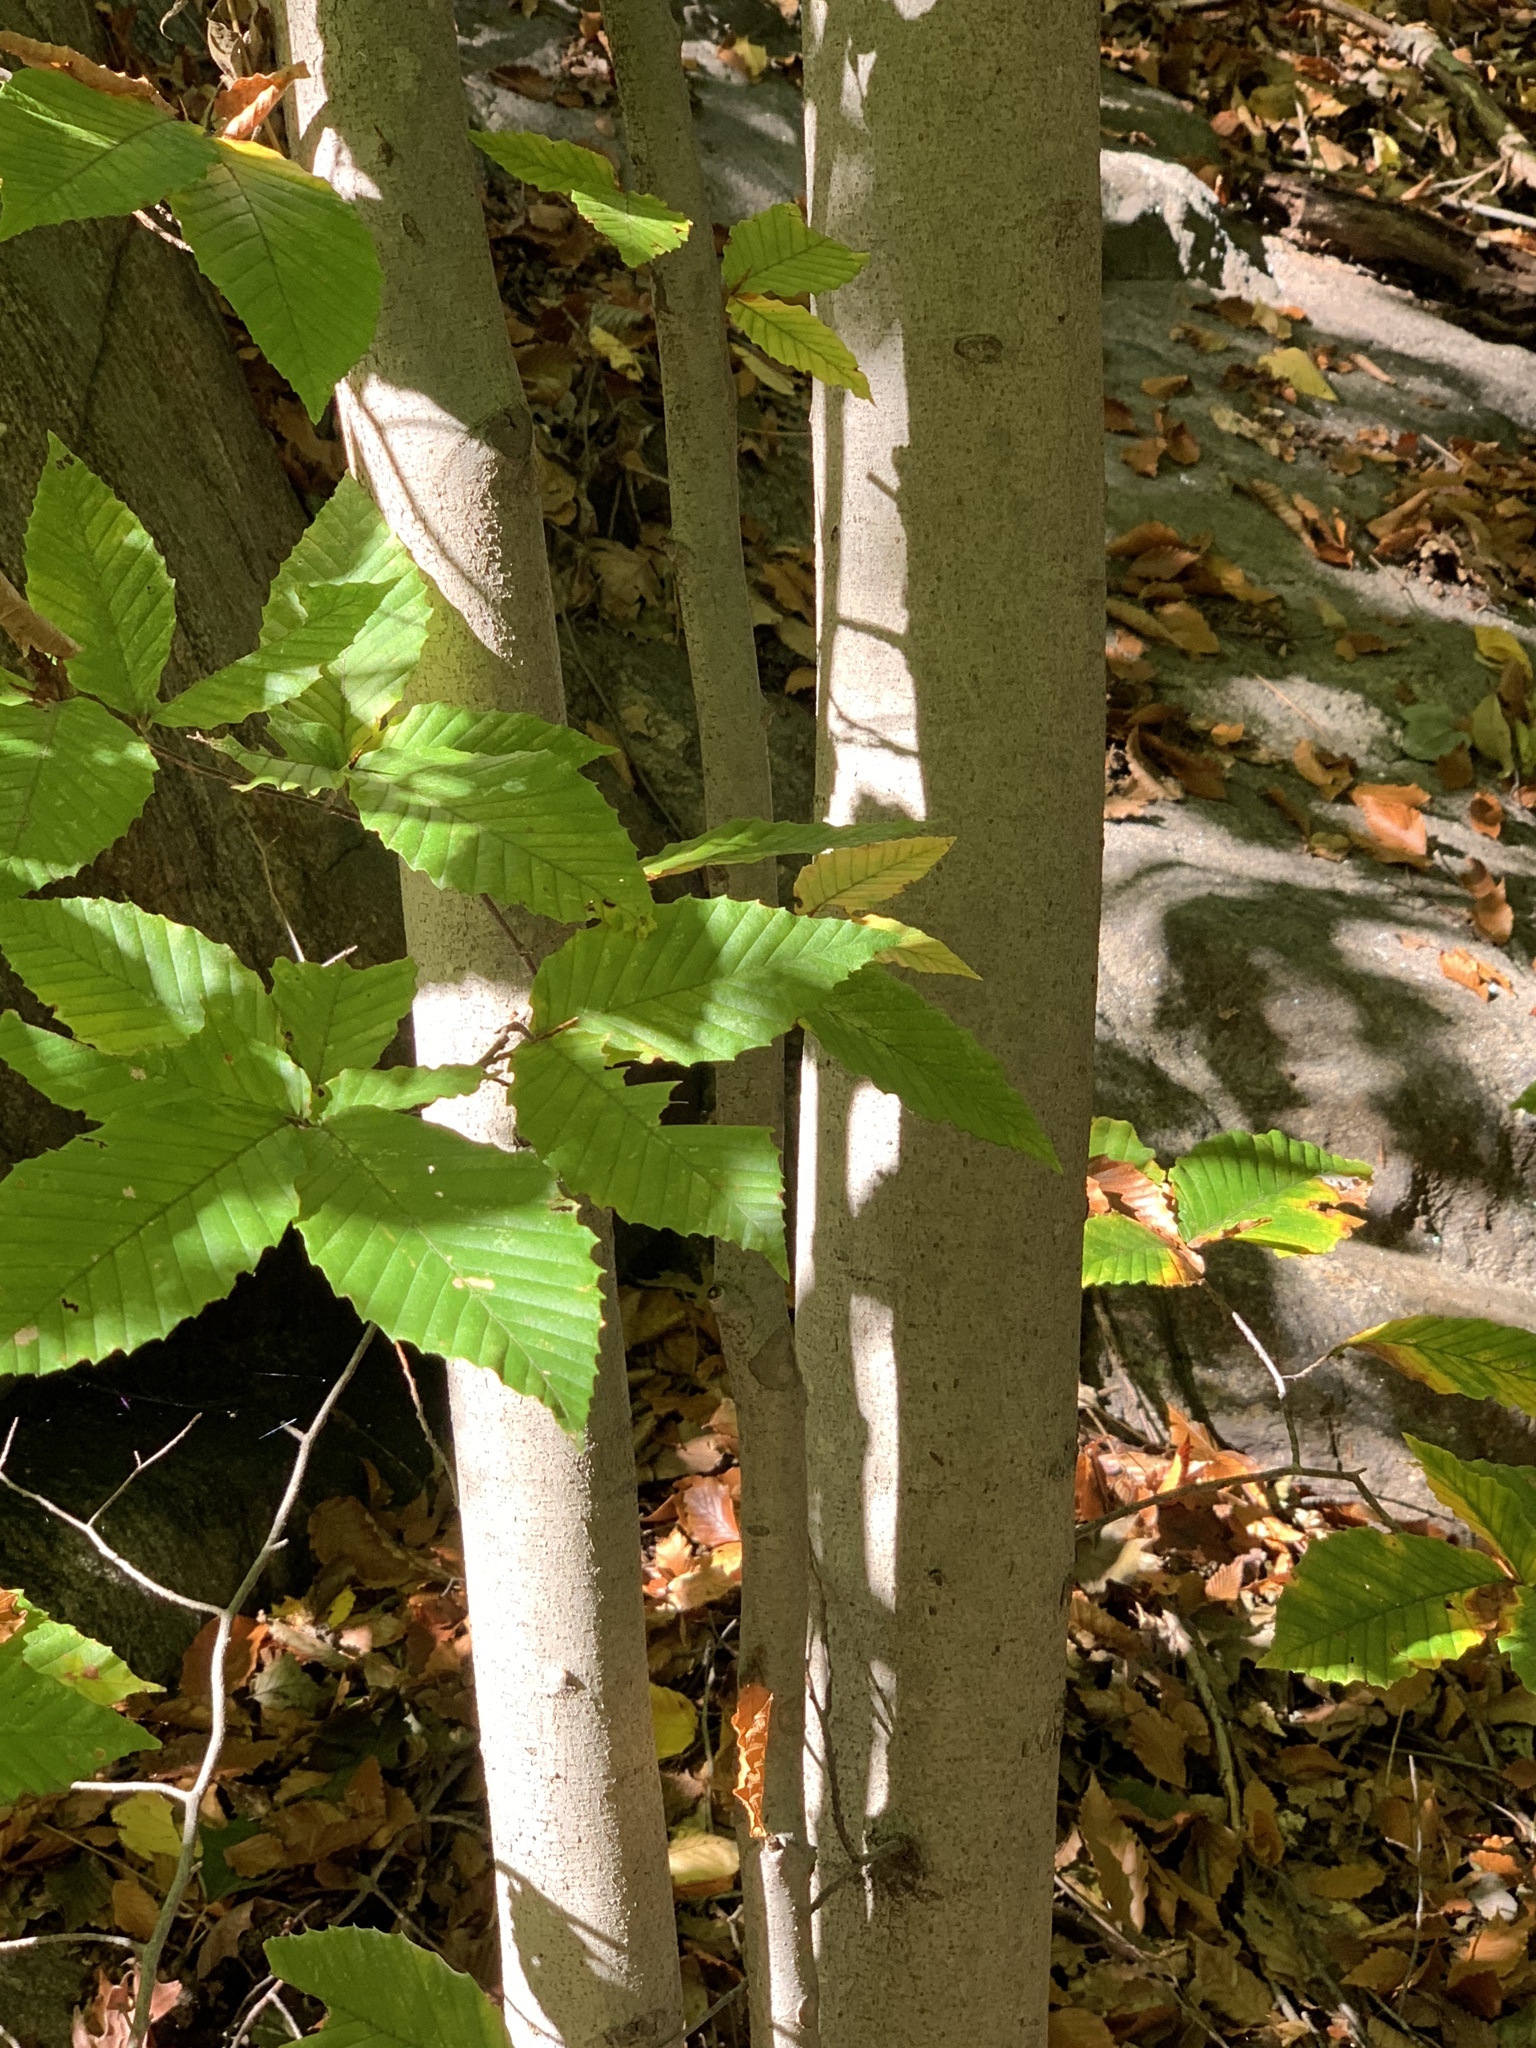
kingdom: Plantae
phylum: Tracheophyta
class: Magnoliopsida
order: Fagales
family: Fagaceae
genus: Fagus
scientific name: Fagus grandifolia
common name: American beech
